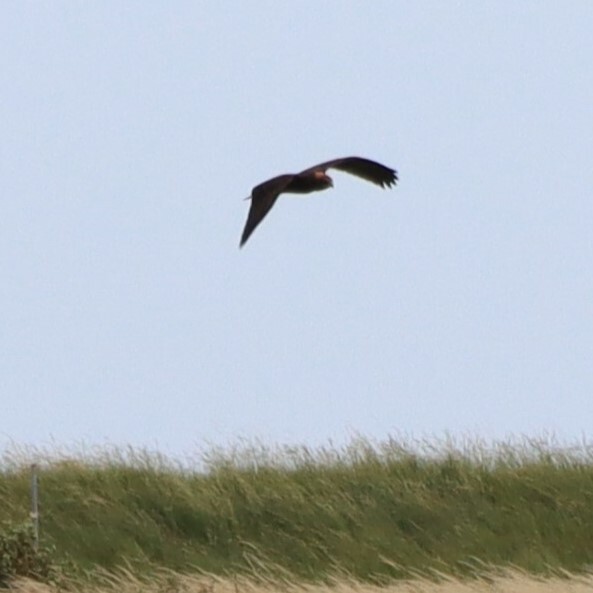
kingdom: Animalia
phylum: Chordata
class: Aves
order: Accipitriformes
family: Accipitridae
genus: Circus
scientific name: Circus aeruginosus
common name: Western marsh harrier
